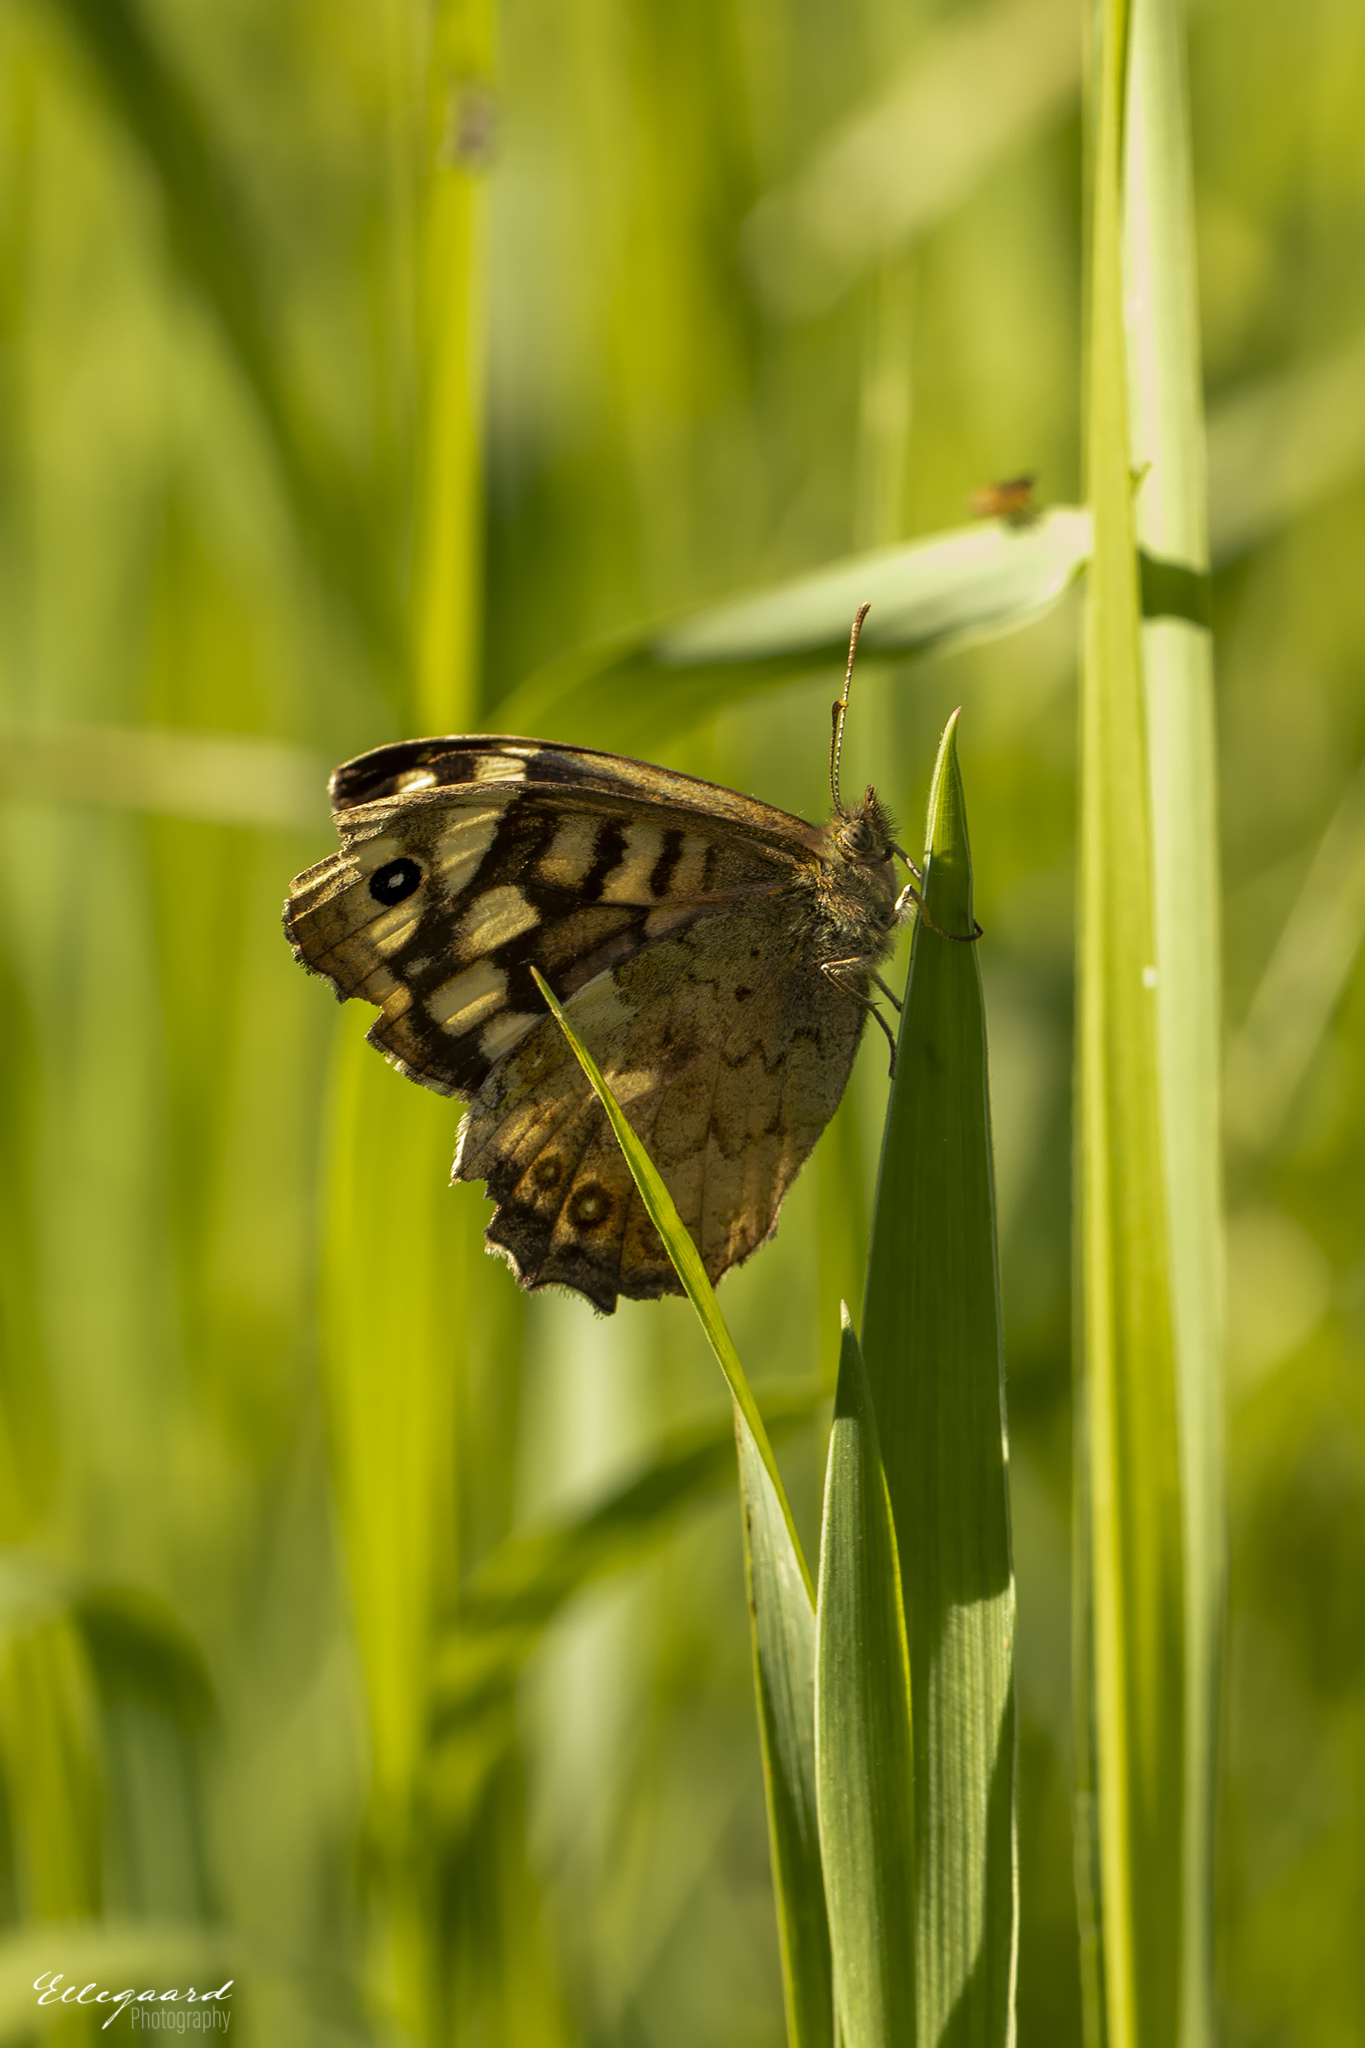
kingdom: Animalia
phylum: Arthropoda
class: Insecta
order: Lepidoptera
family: Nymphalidae
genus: Pararge
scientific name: Pararge aegeria
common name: Speckled wood
